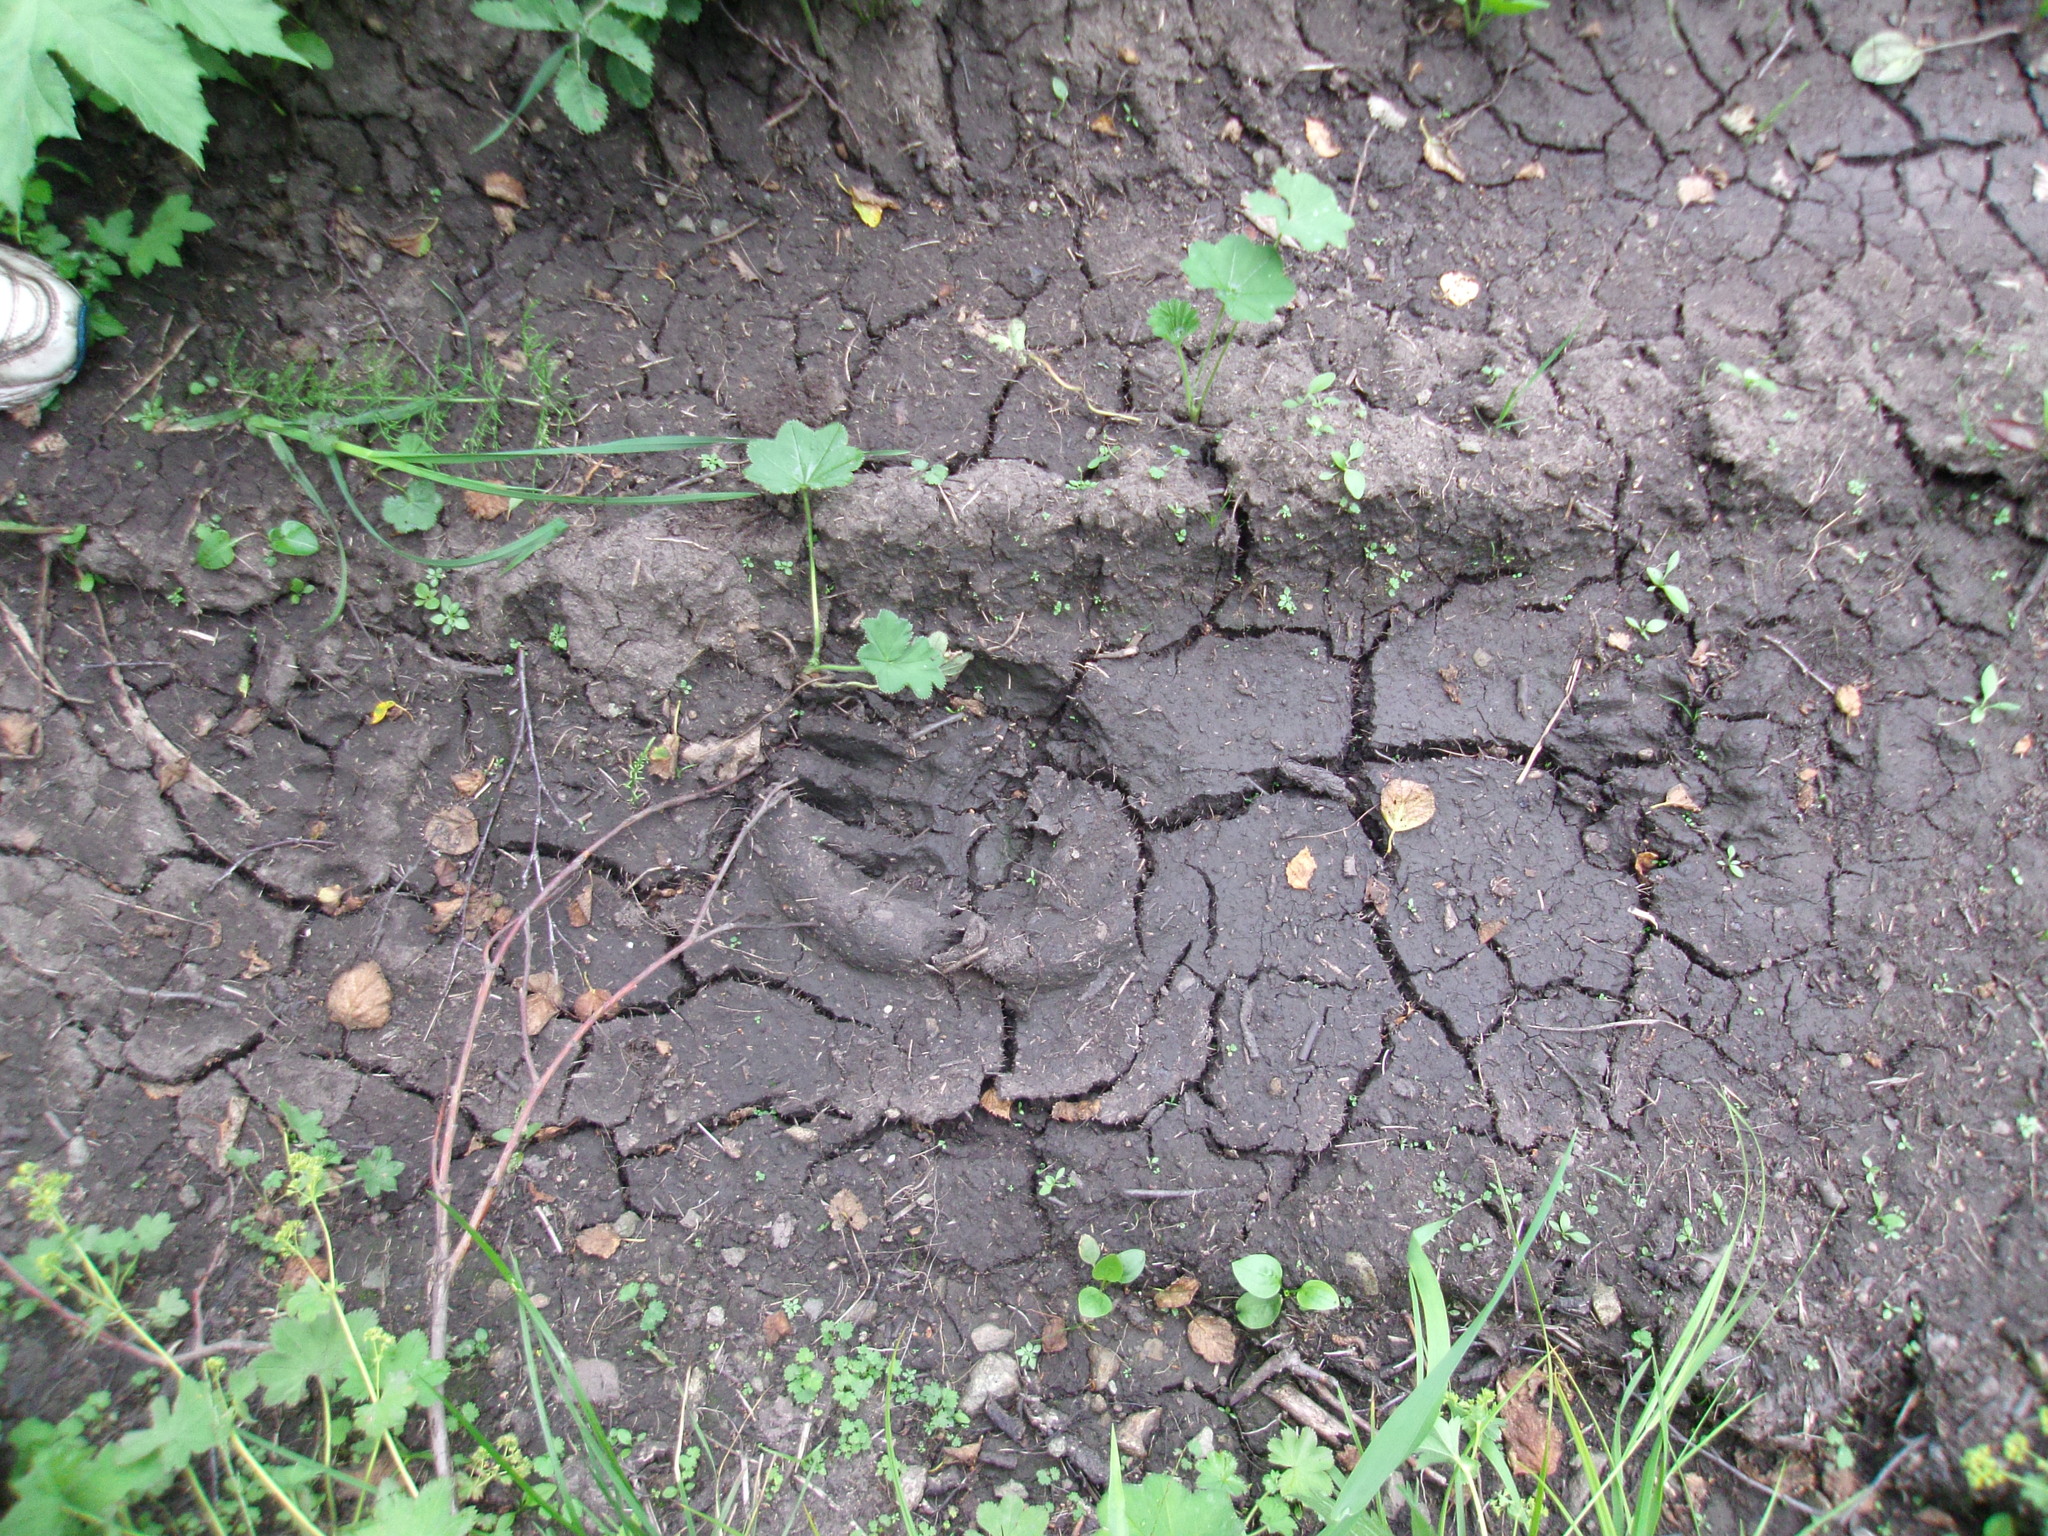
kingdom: Animalia
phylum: Chordata
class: Mammalia
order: Carnivora
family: Ursidae
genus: Ursus
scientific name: Ursus arctos
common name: Brown bear
